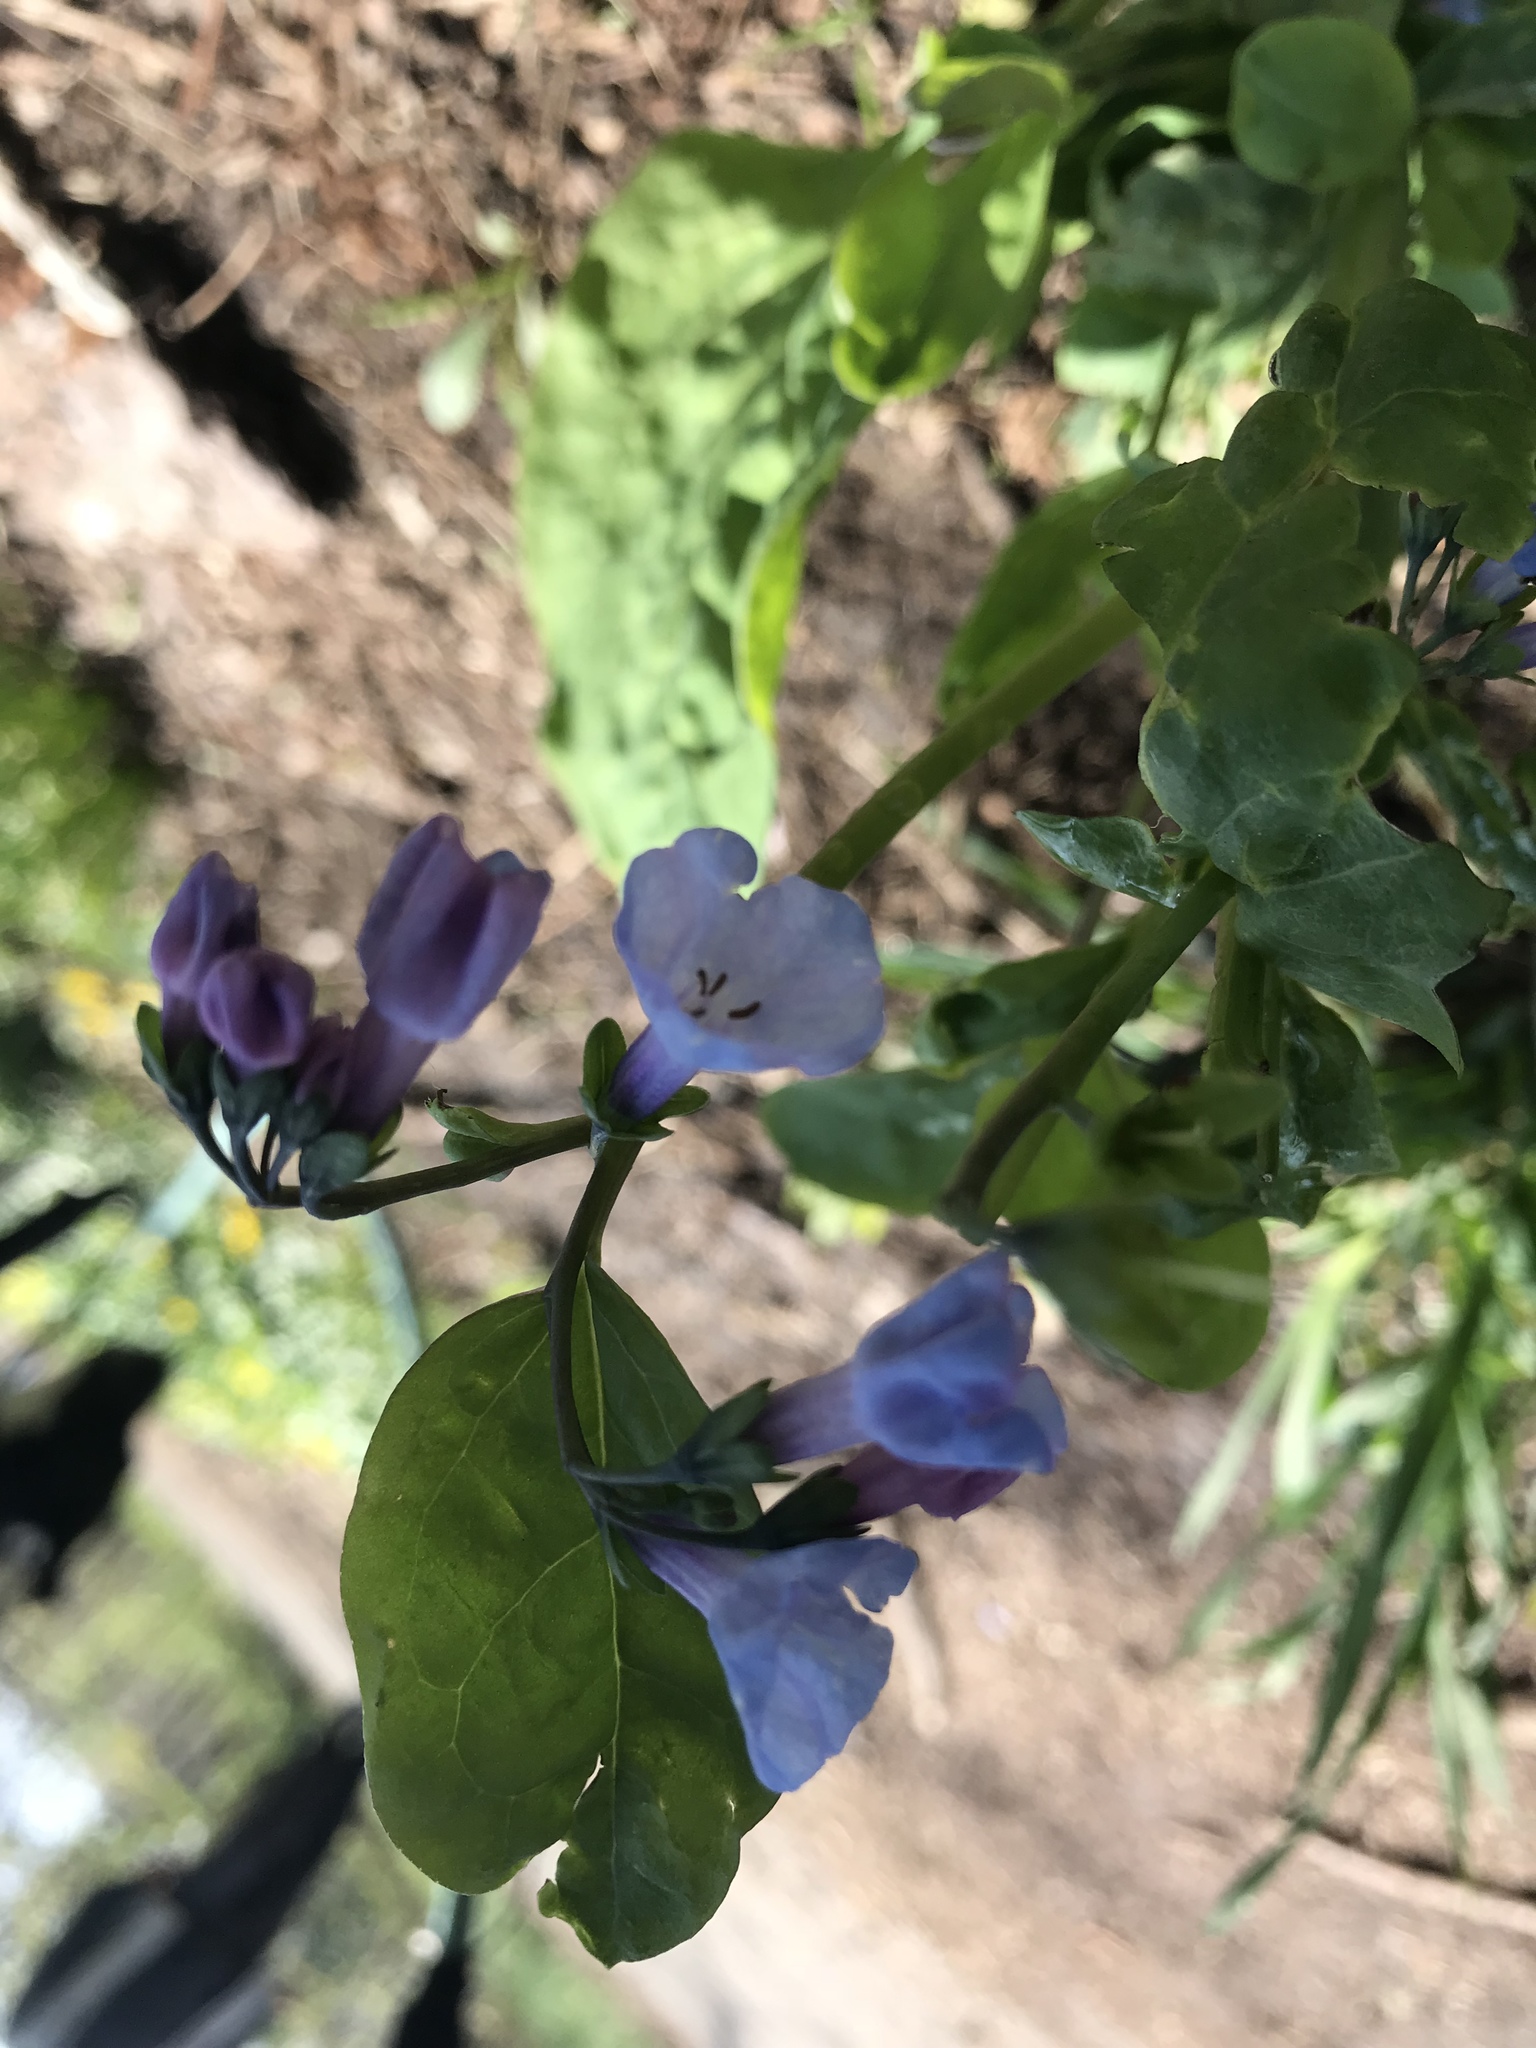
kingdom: Plantae
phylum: Tracheophyta
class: Magnoliopsida
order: Boraginales
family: Boraginaceae
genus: Mertensia
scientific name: Mertensia virginica
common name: Virginia bluebells
